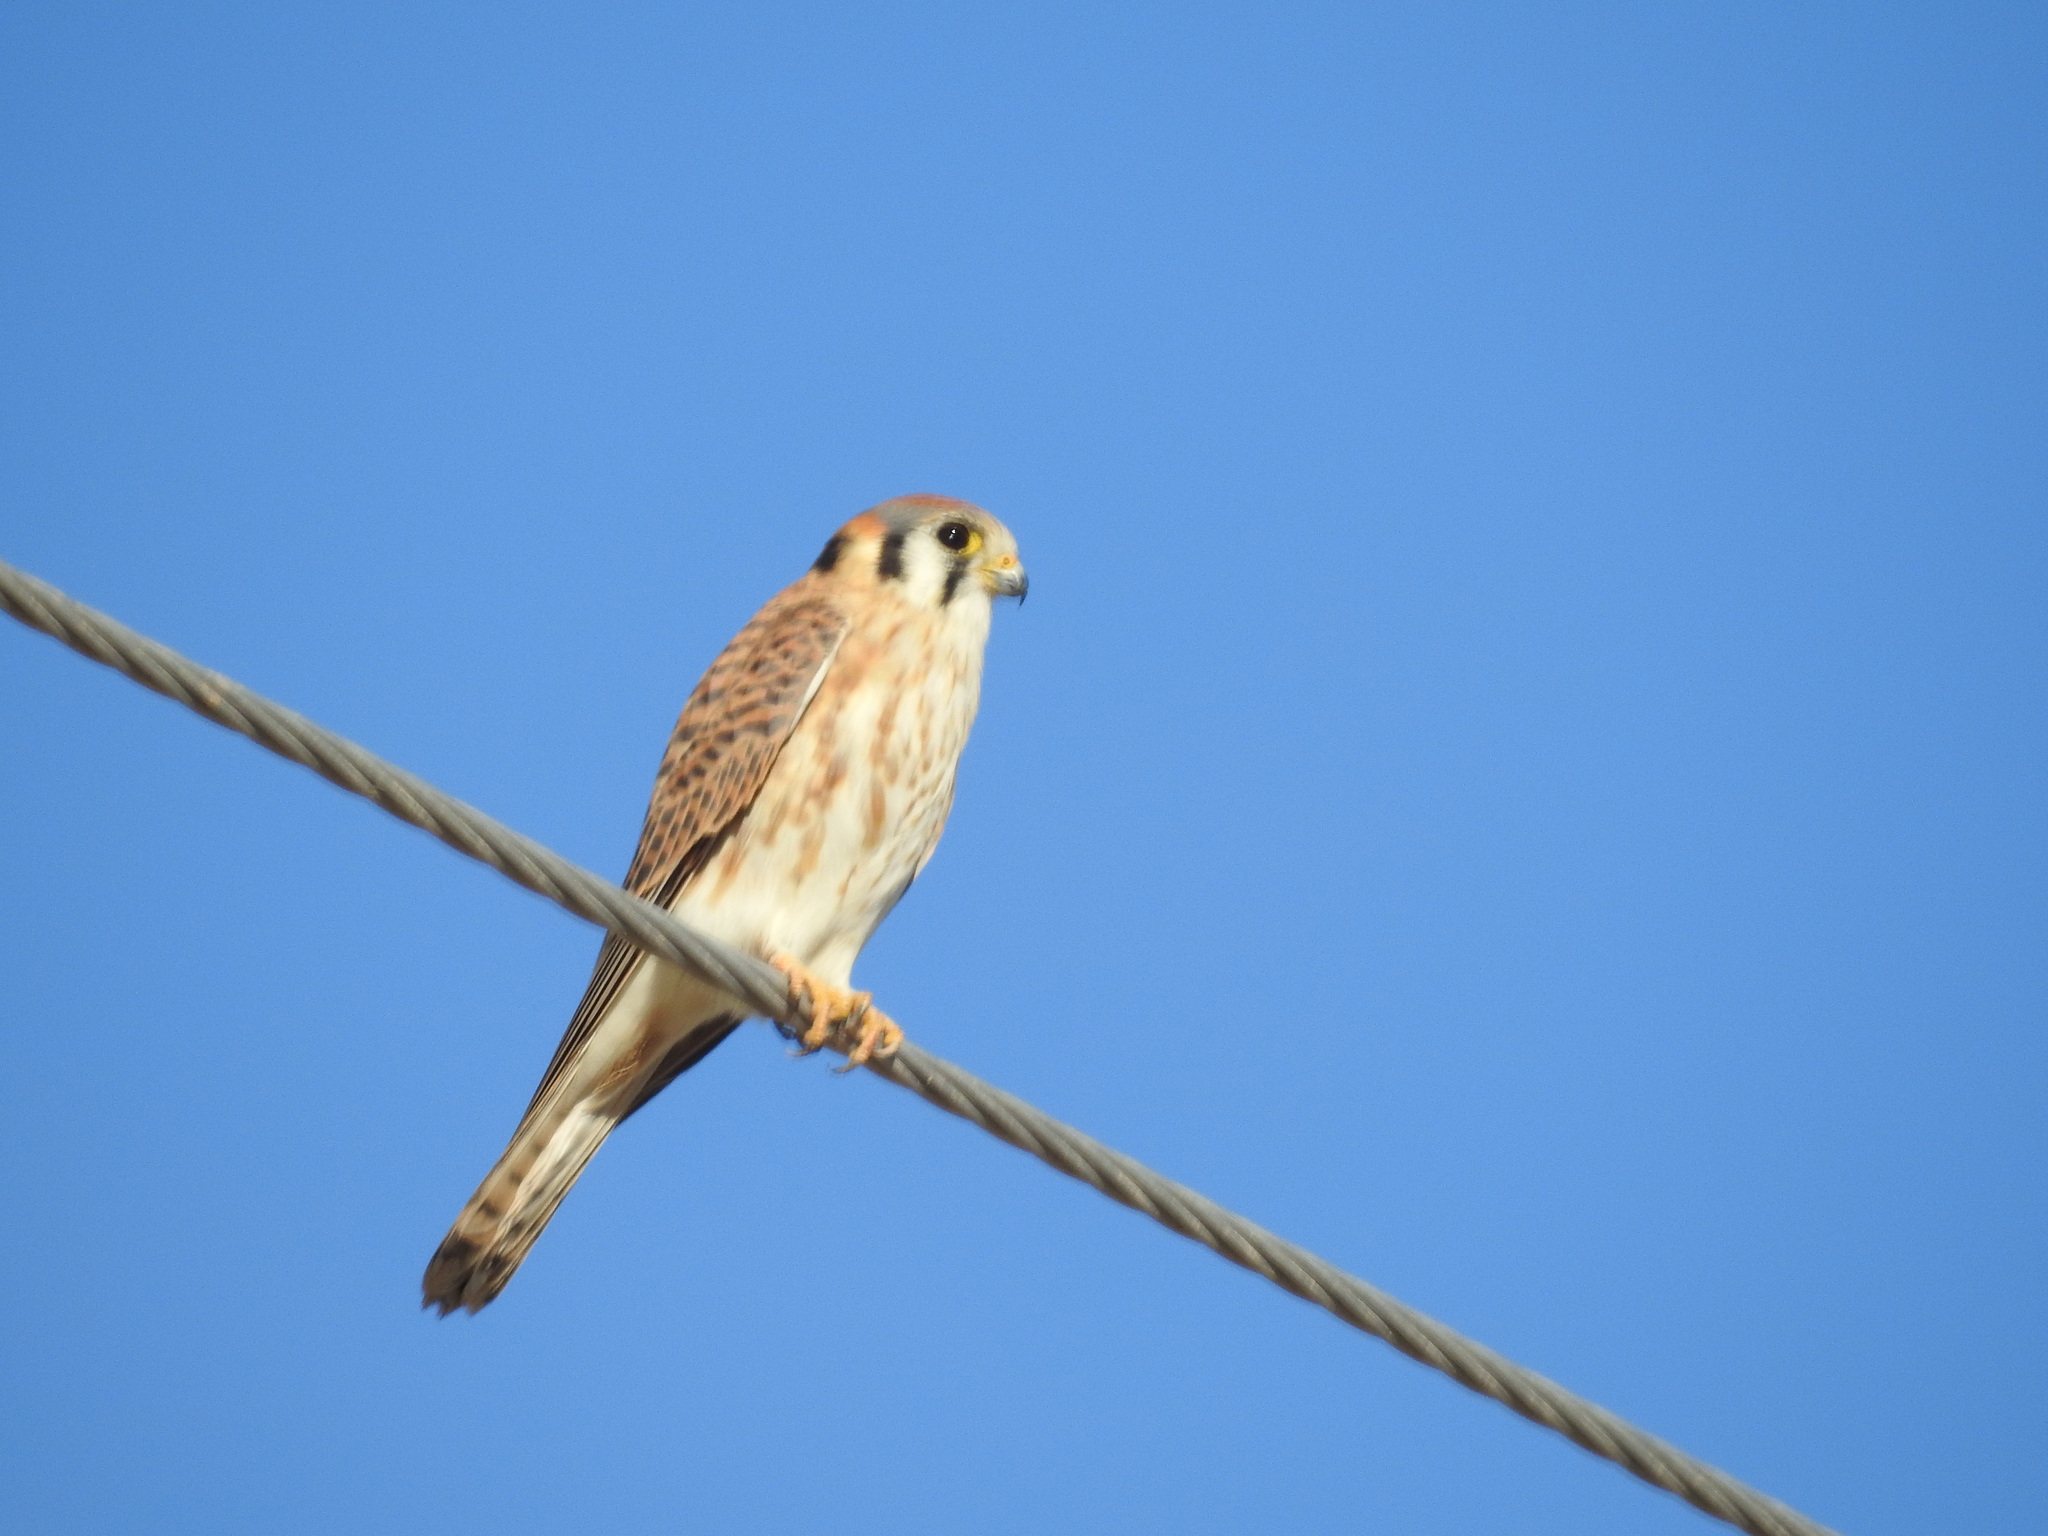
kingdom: Animalia
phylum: Chordata
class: Aves
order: Falconiformes
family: Falconidae
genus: Falco
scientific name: Falco sparverius
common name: American kestrel
